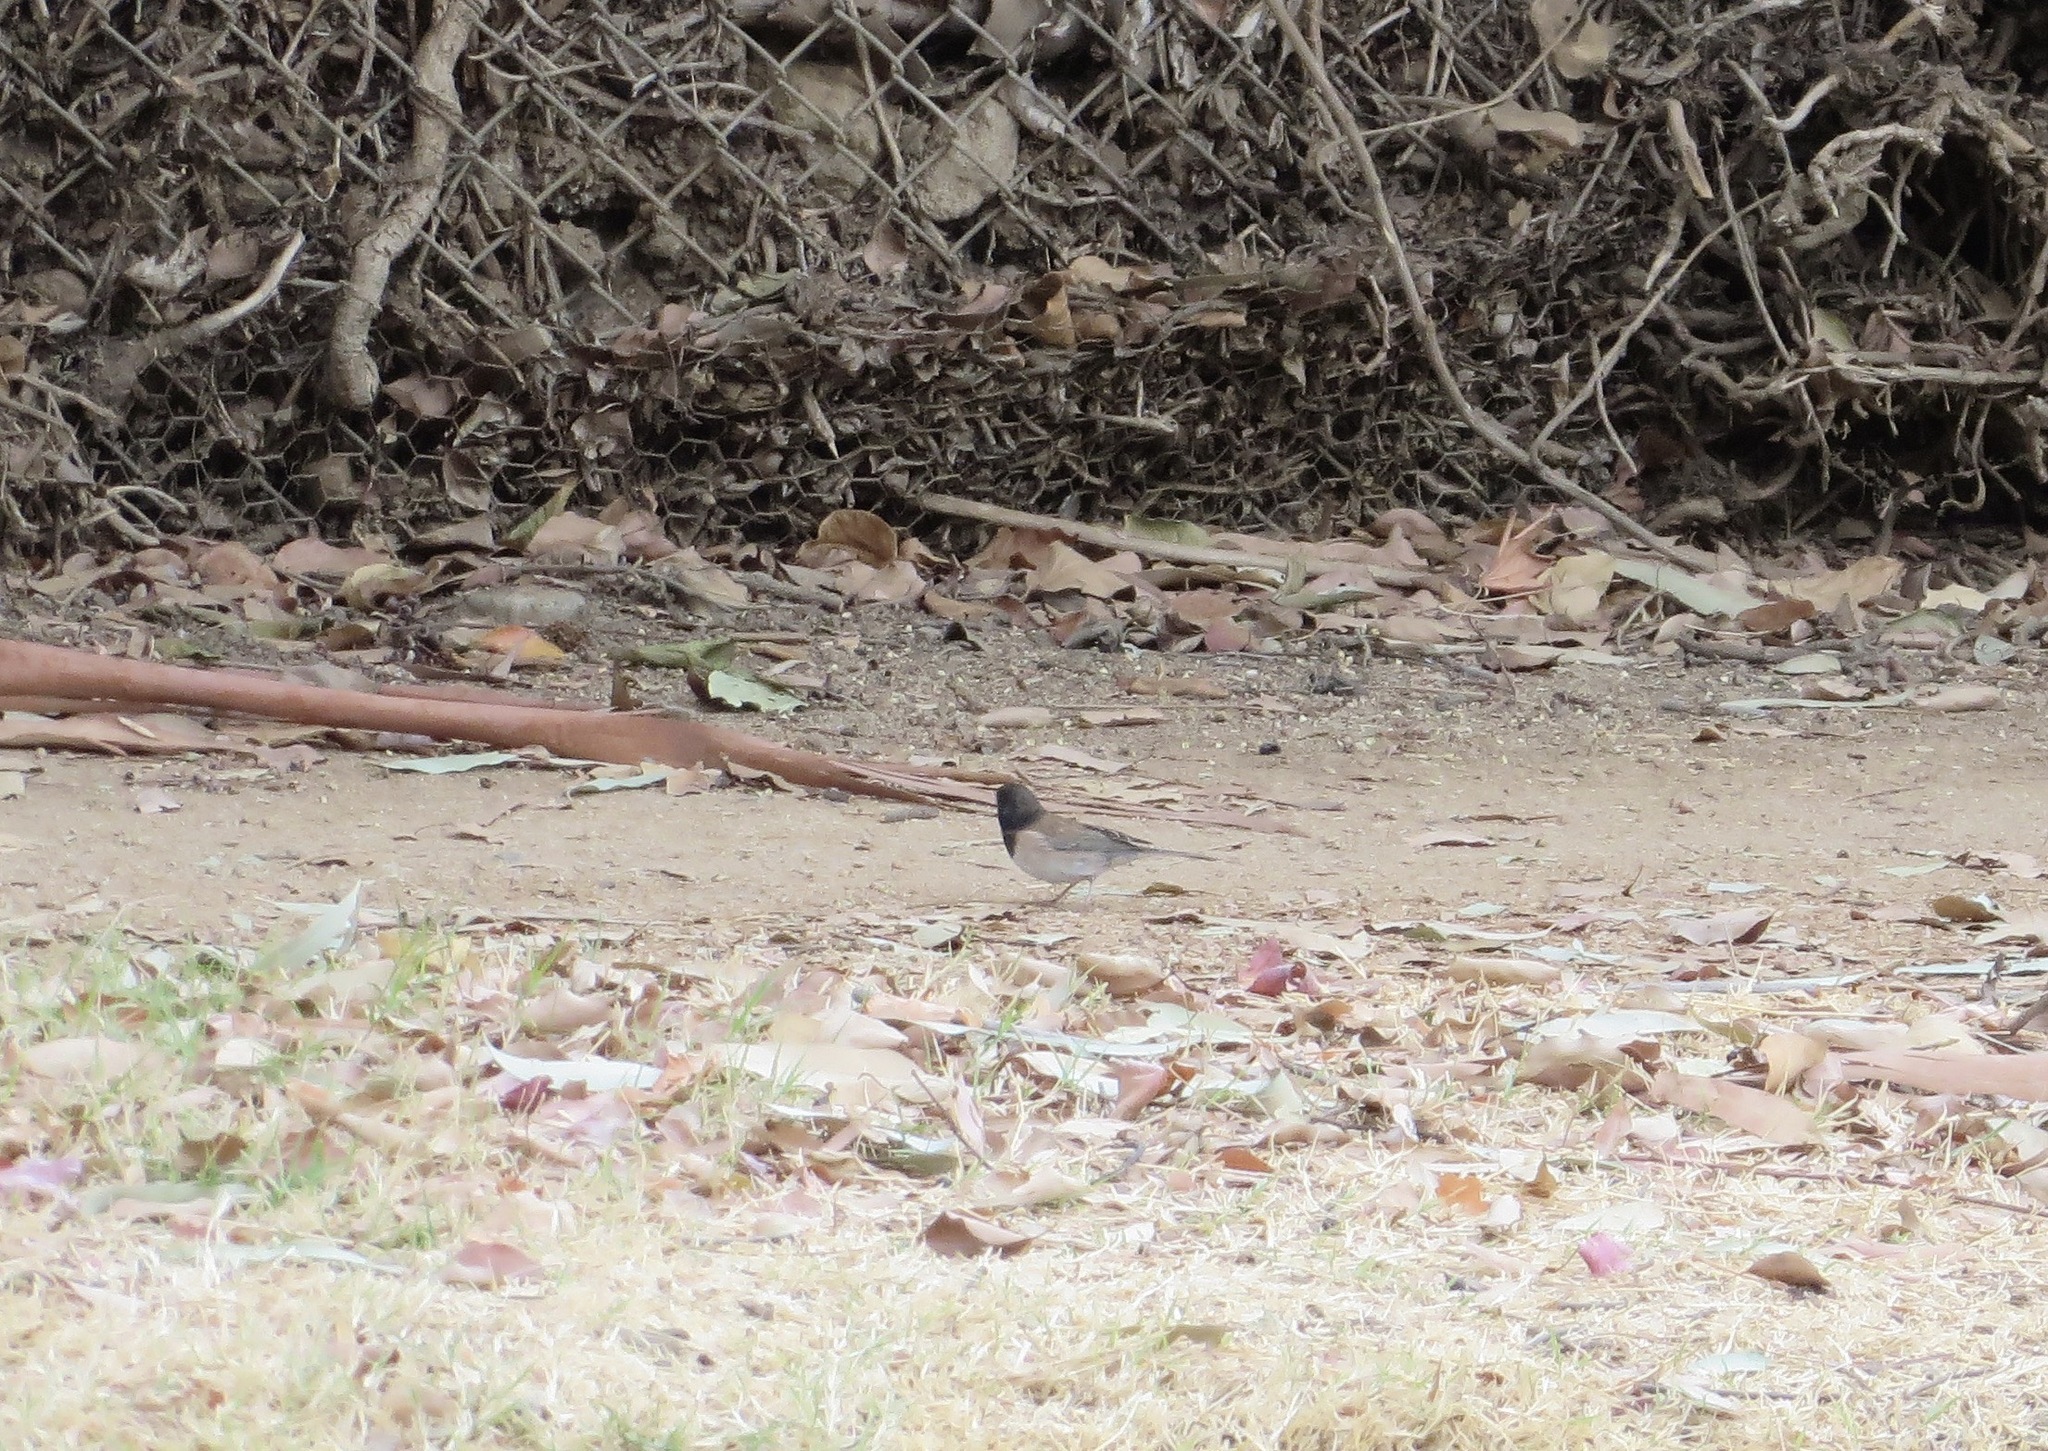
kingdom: Animalia
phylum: Chordata
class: Aves
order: Passeriformes
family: Passerellidae
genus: Junco
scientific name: Junco hyemalis
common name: Dark-eyed junco
